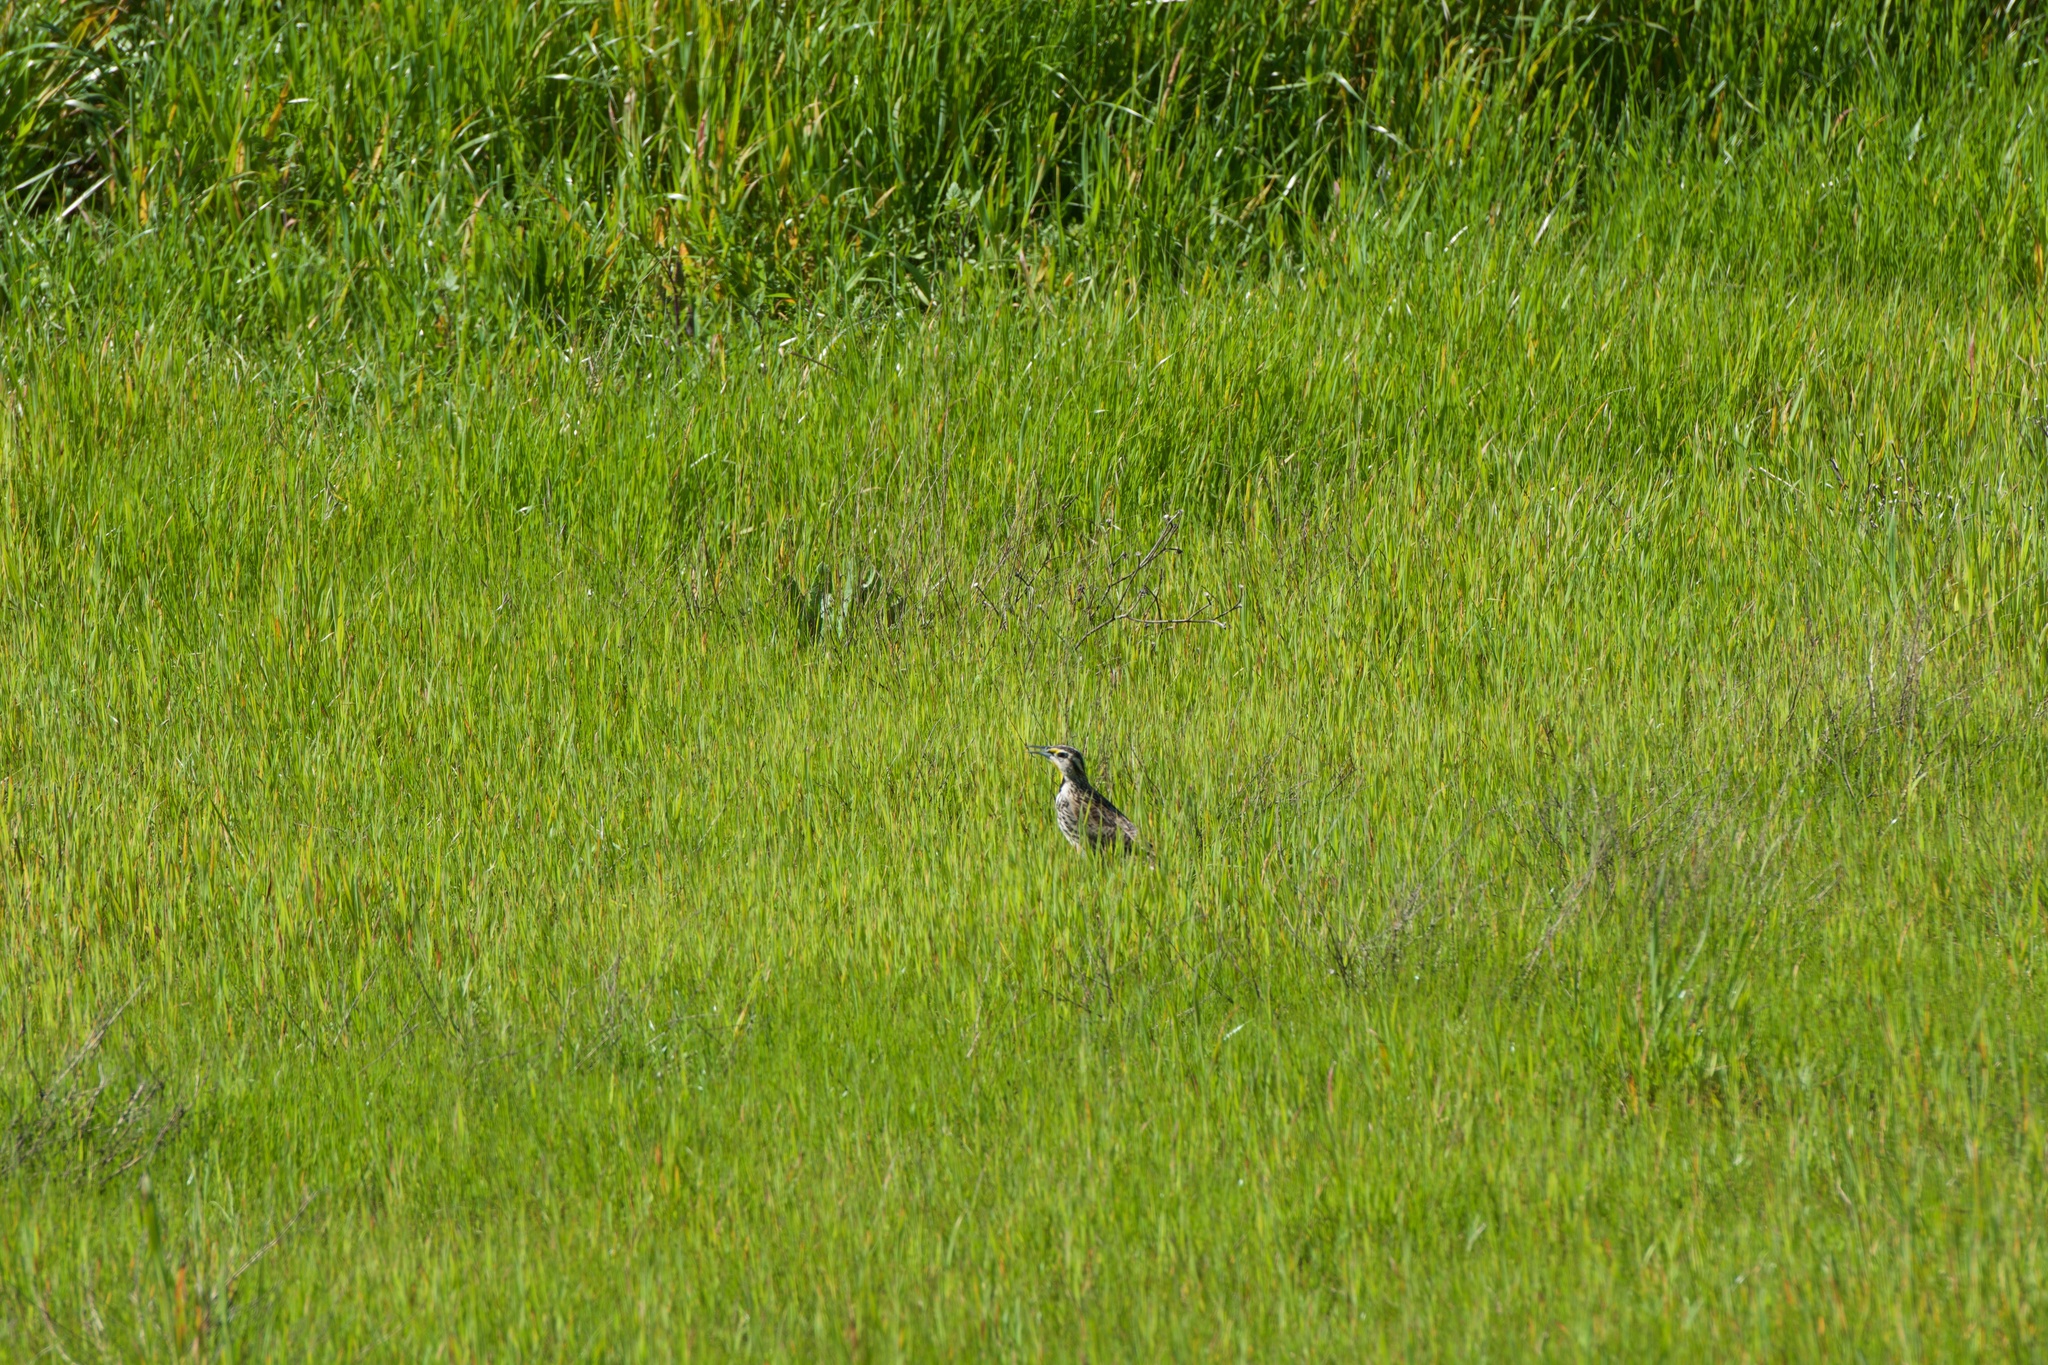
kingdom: Animalia
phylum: Chordata
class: Aves
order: Passeriformes
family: Icteridae
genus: Sturnella
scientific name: Sturnella neglecta
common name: Western meadowlark
